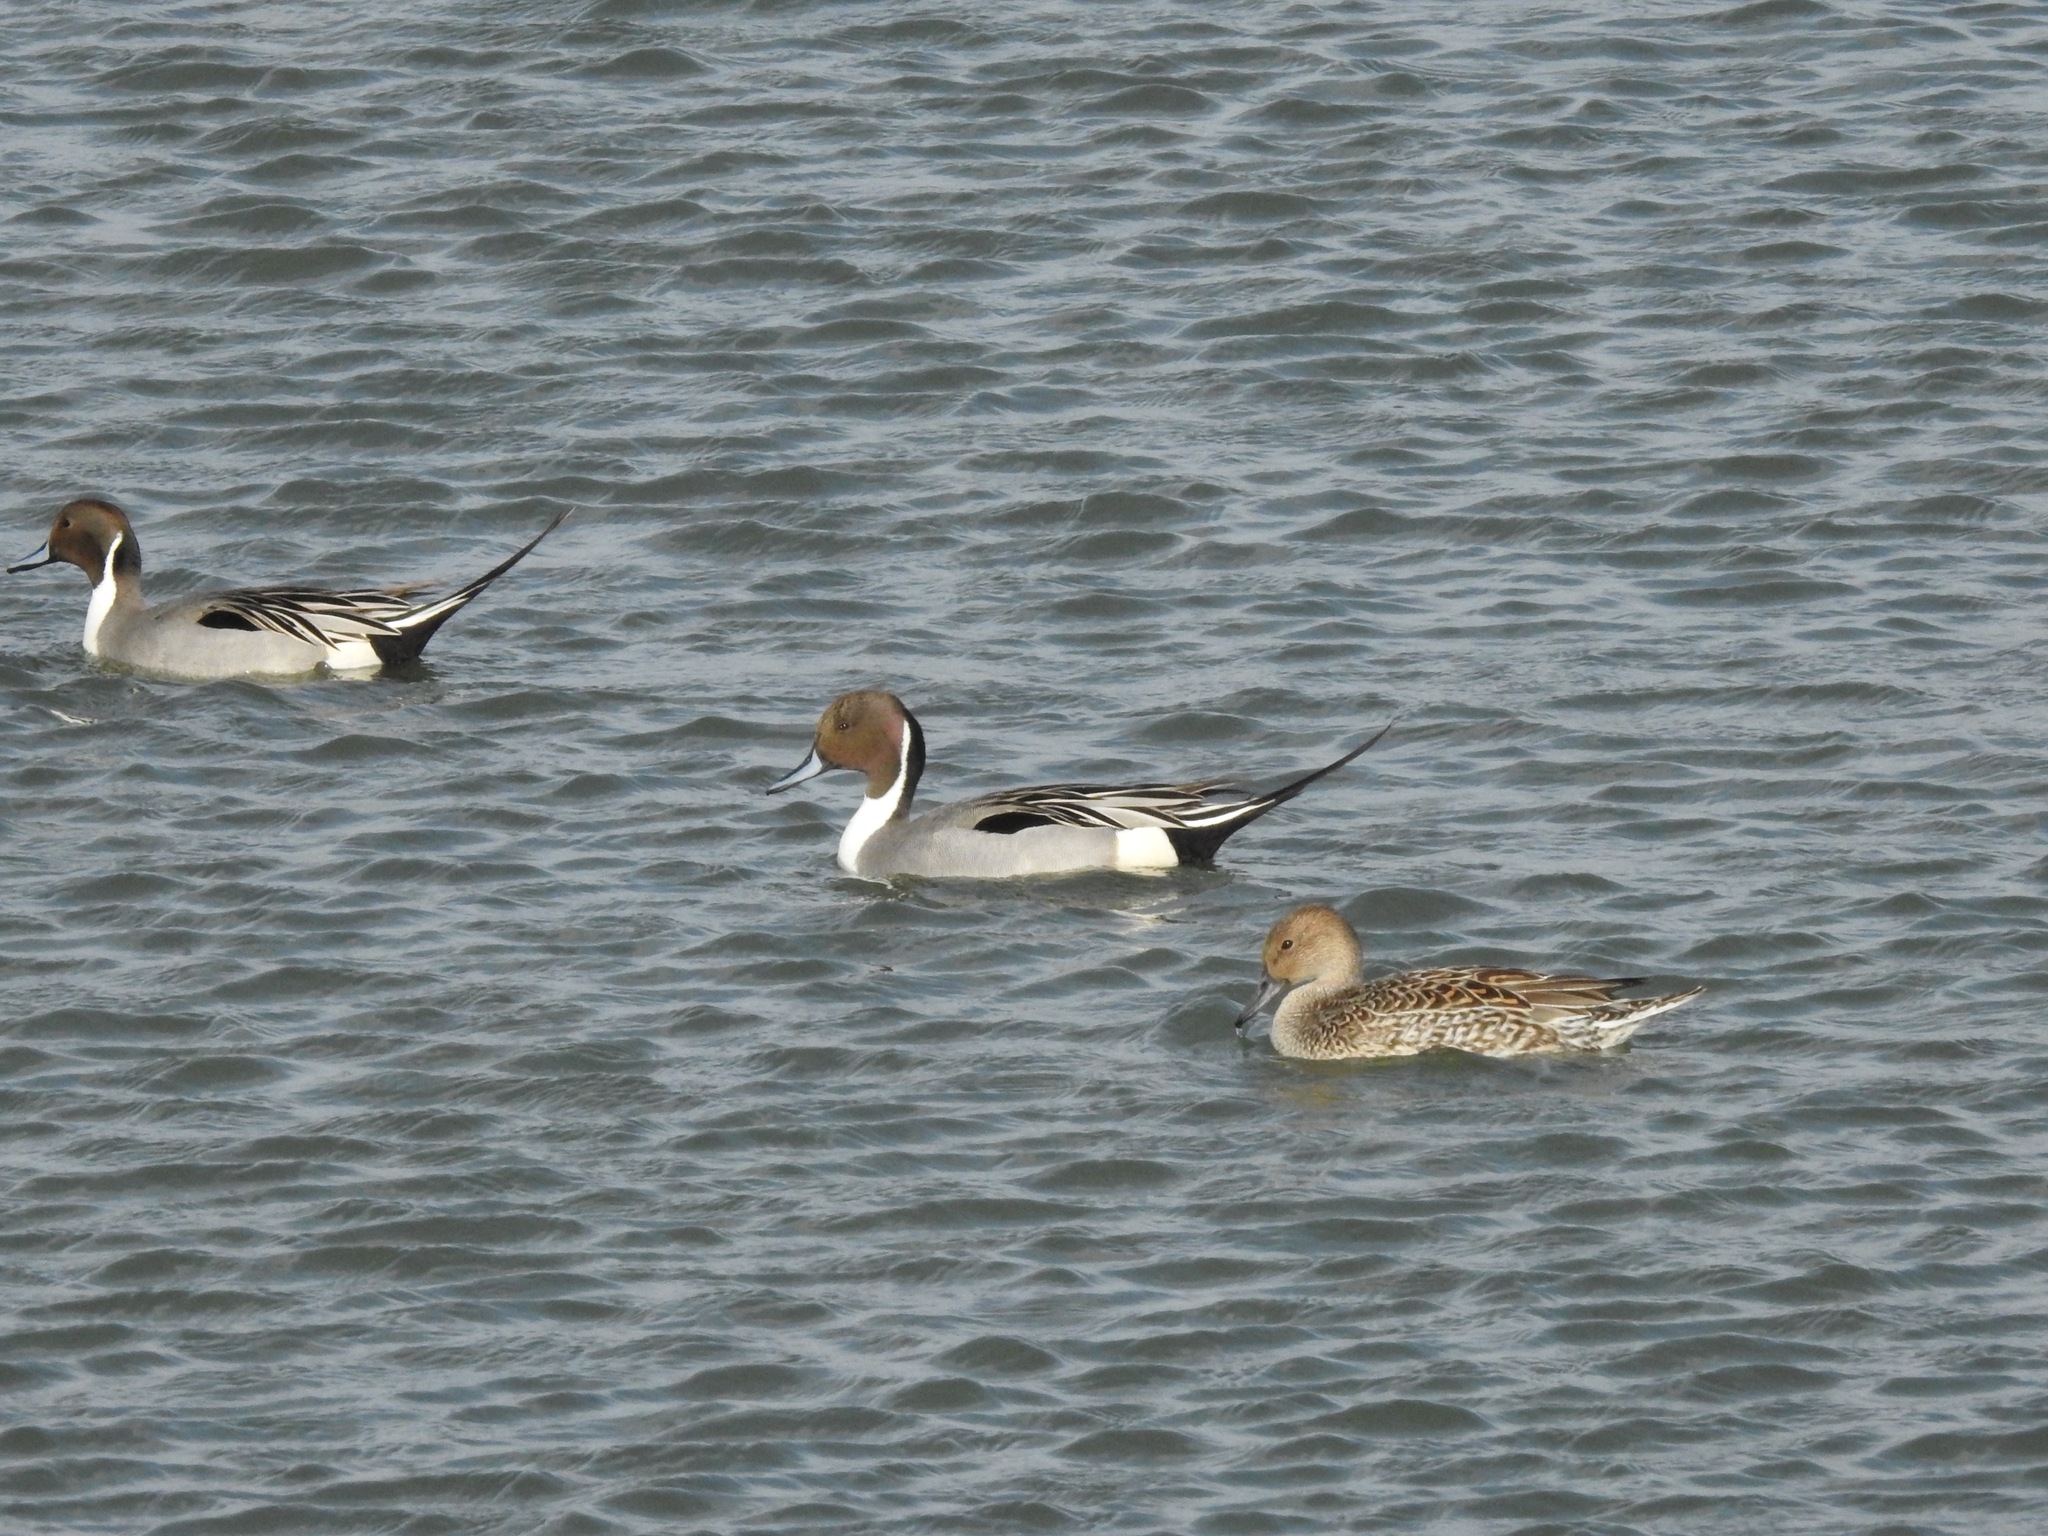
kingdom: Animalia
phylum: Chordata
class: Aves
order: Anseriformes
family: Anatidae
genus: Anas
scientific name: Anas acuta
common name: Northern pintail
